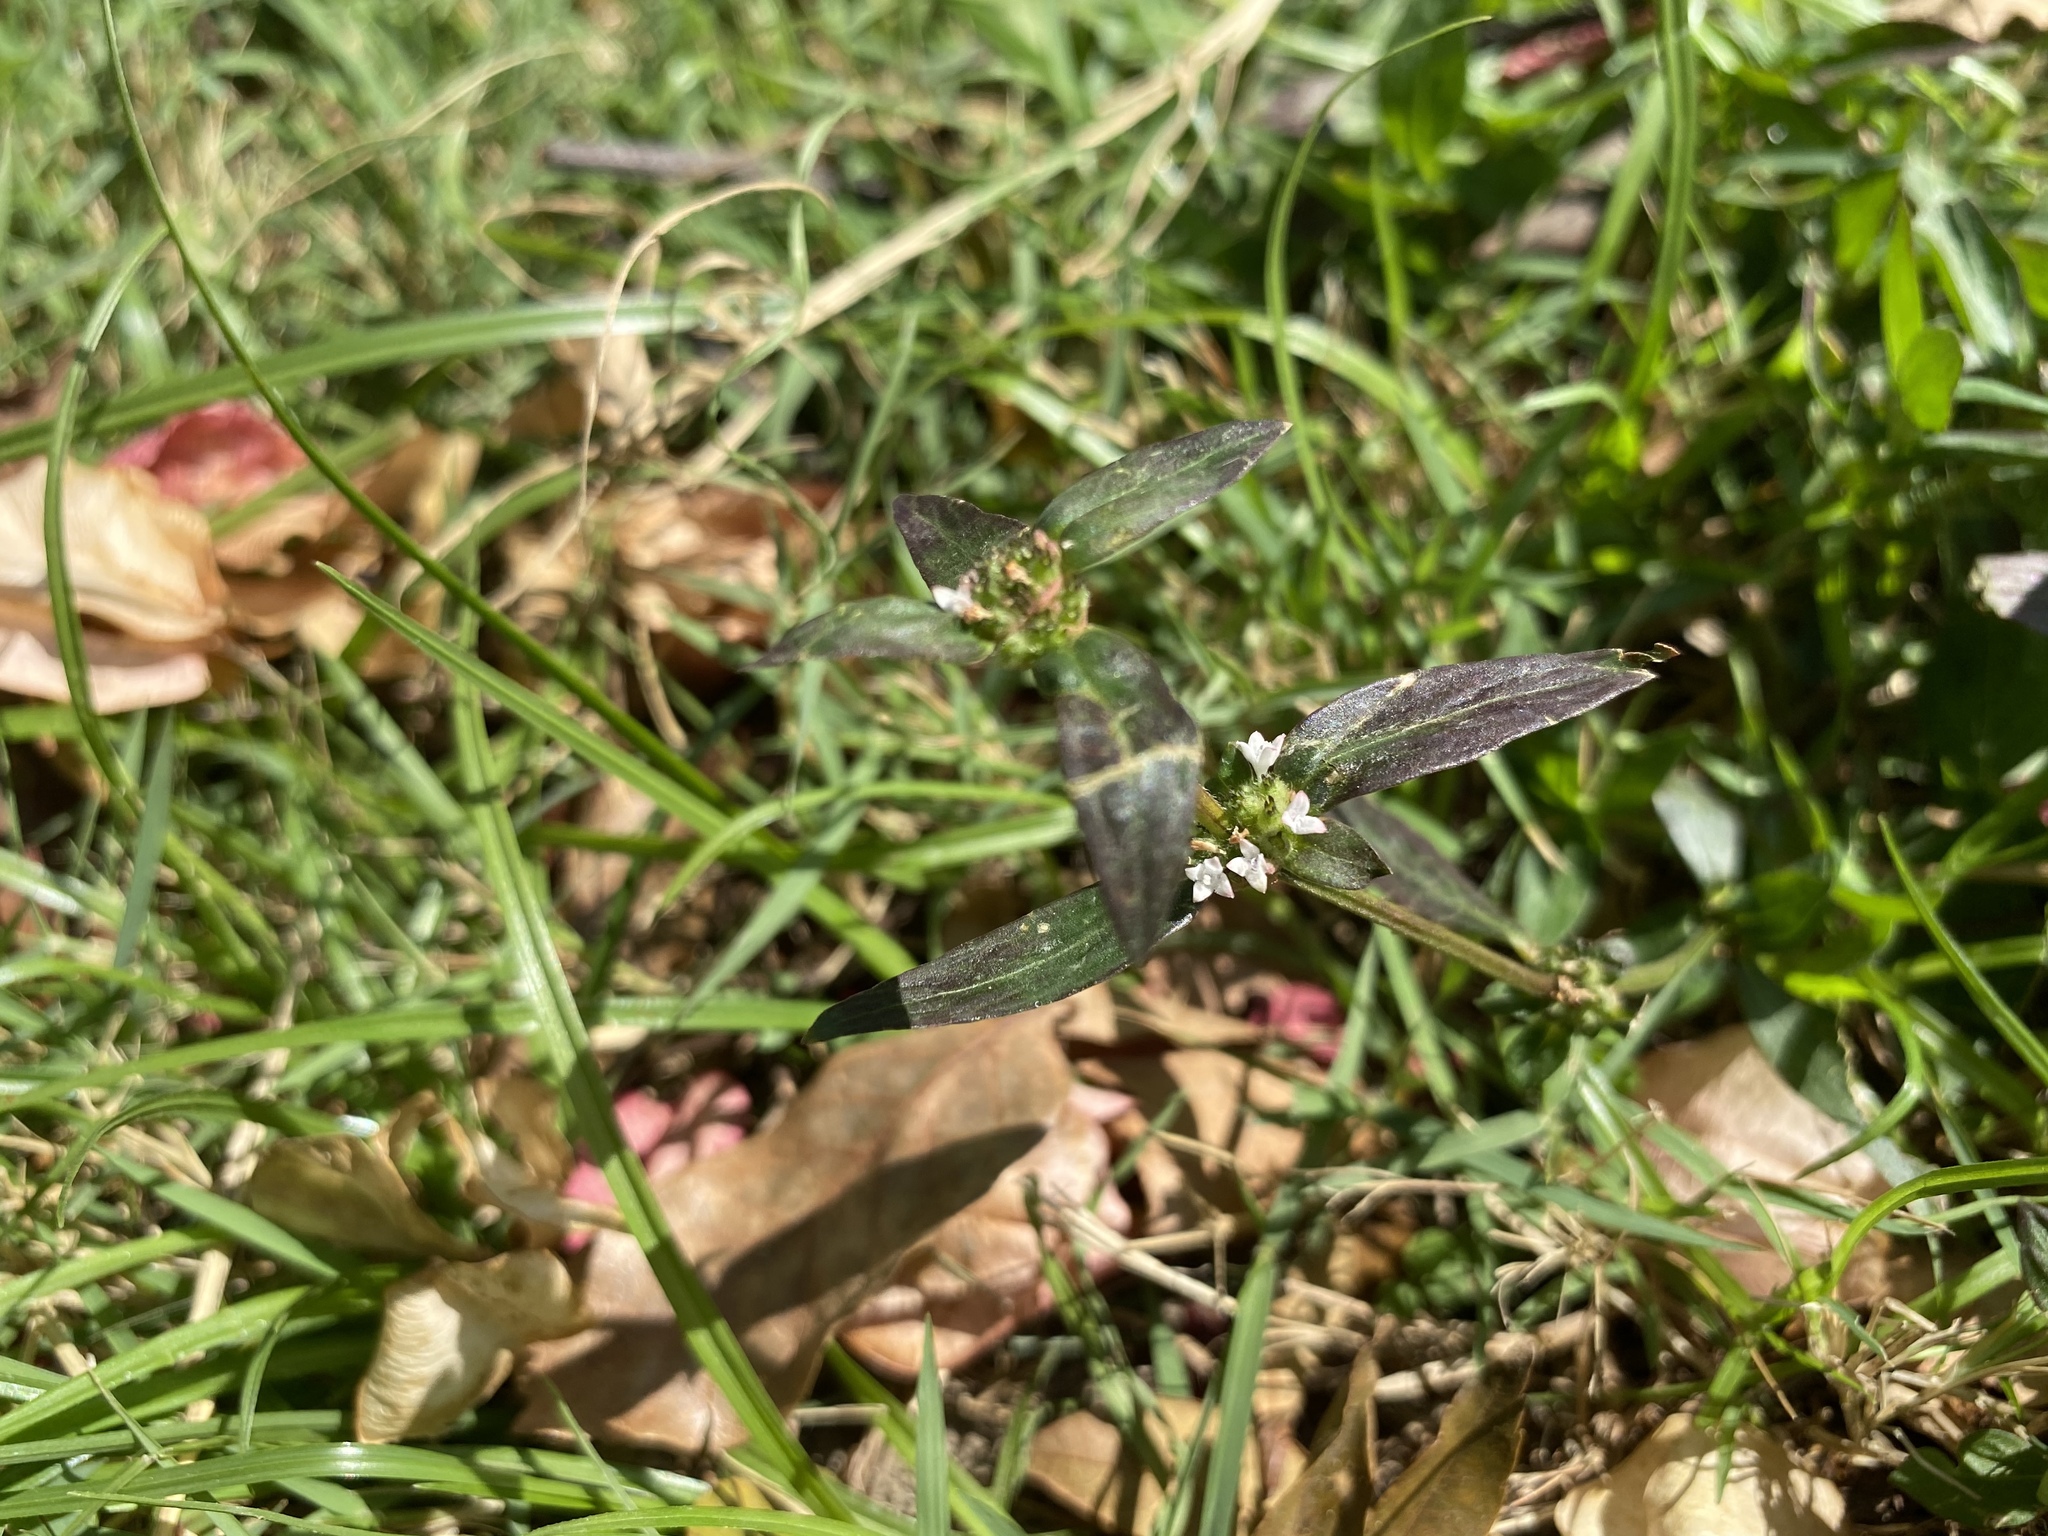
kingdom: Plantae
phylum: Tracheophyta
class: Magnoliopsida
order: Gentianales
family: Rubiaceae
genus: Spermacoce
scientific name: Spermacoce remota
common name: Woodland false buttonweed
